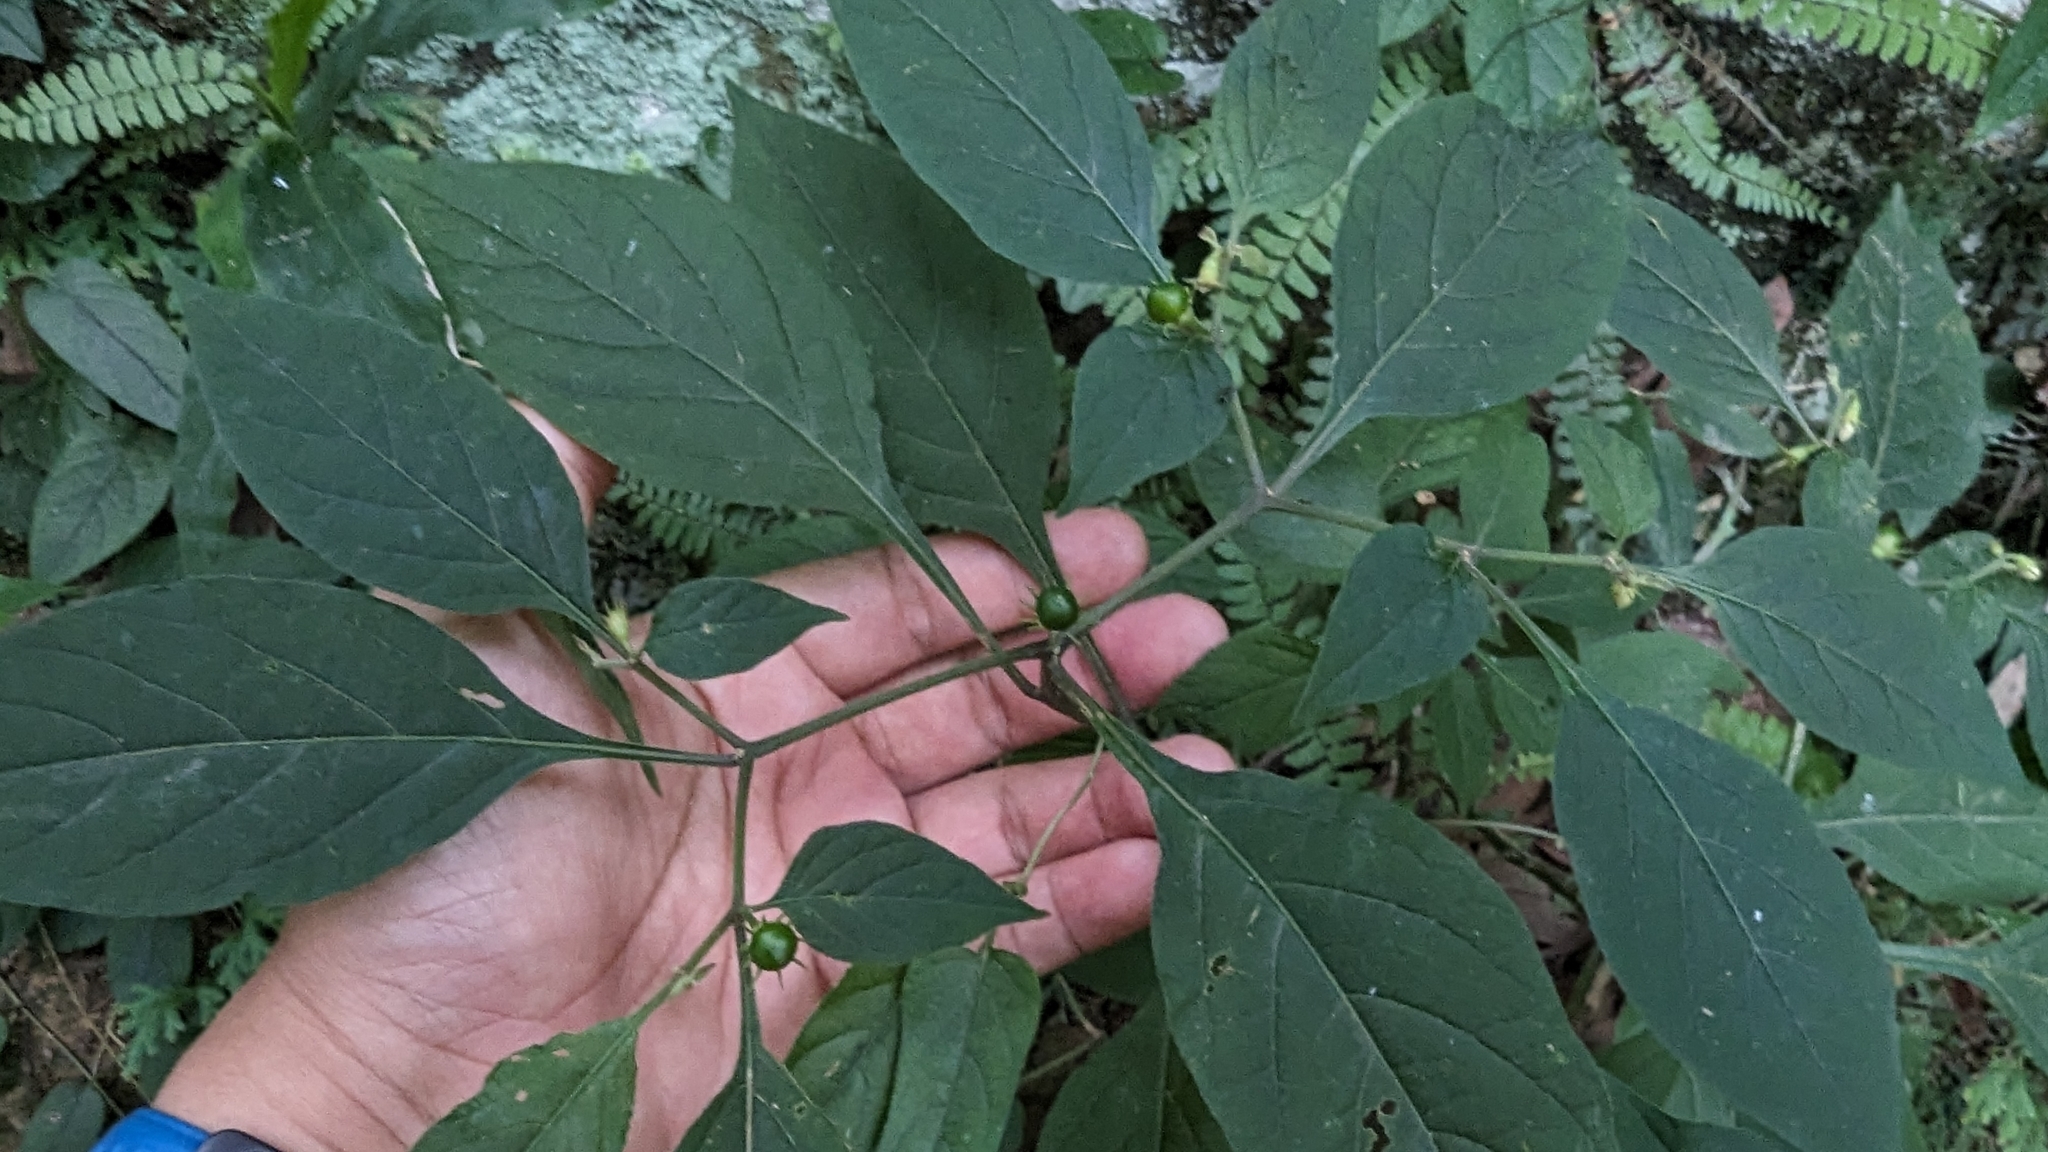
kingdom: Plantae
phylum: Tracheophyta
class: Magnoliopsida
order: Solanales
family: Solanaceae
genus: Lycianthes
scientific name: Lycianthes biflora
